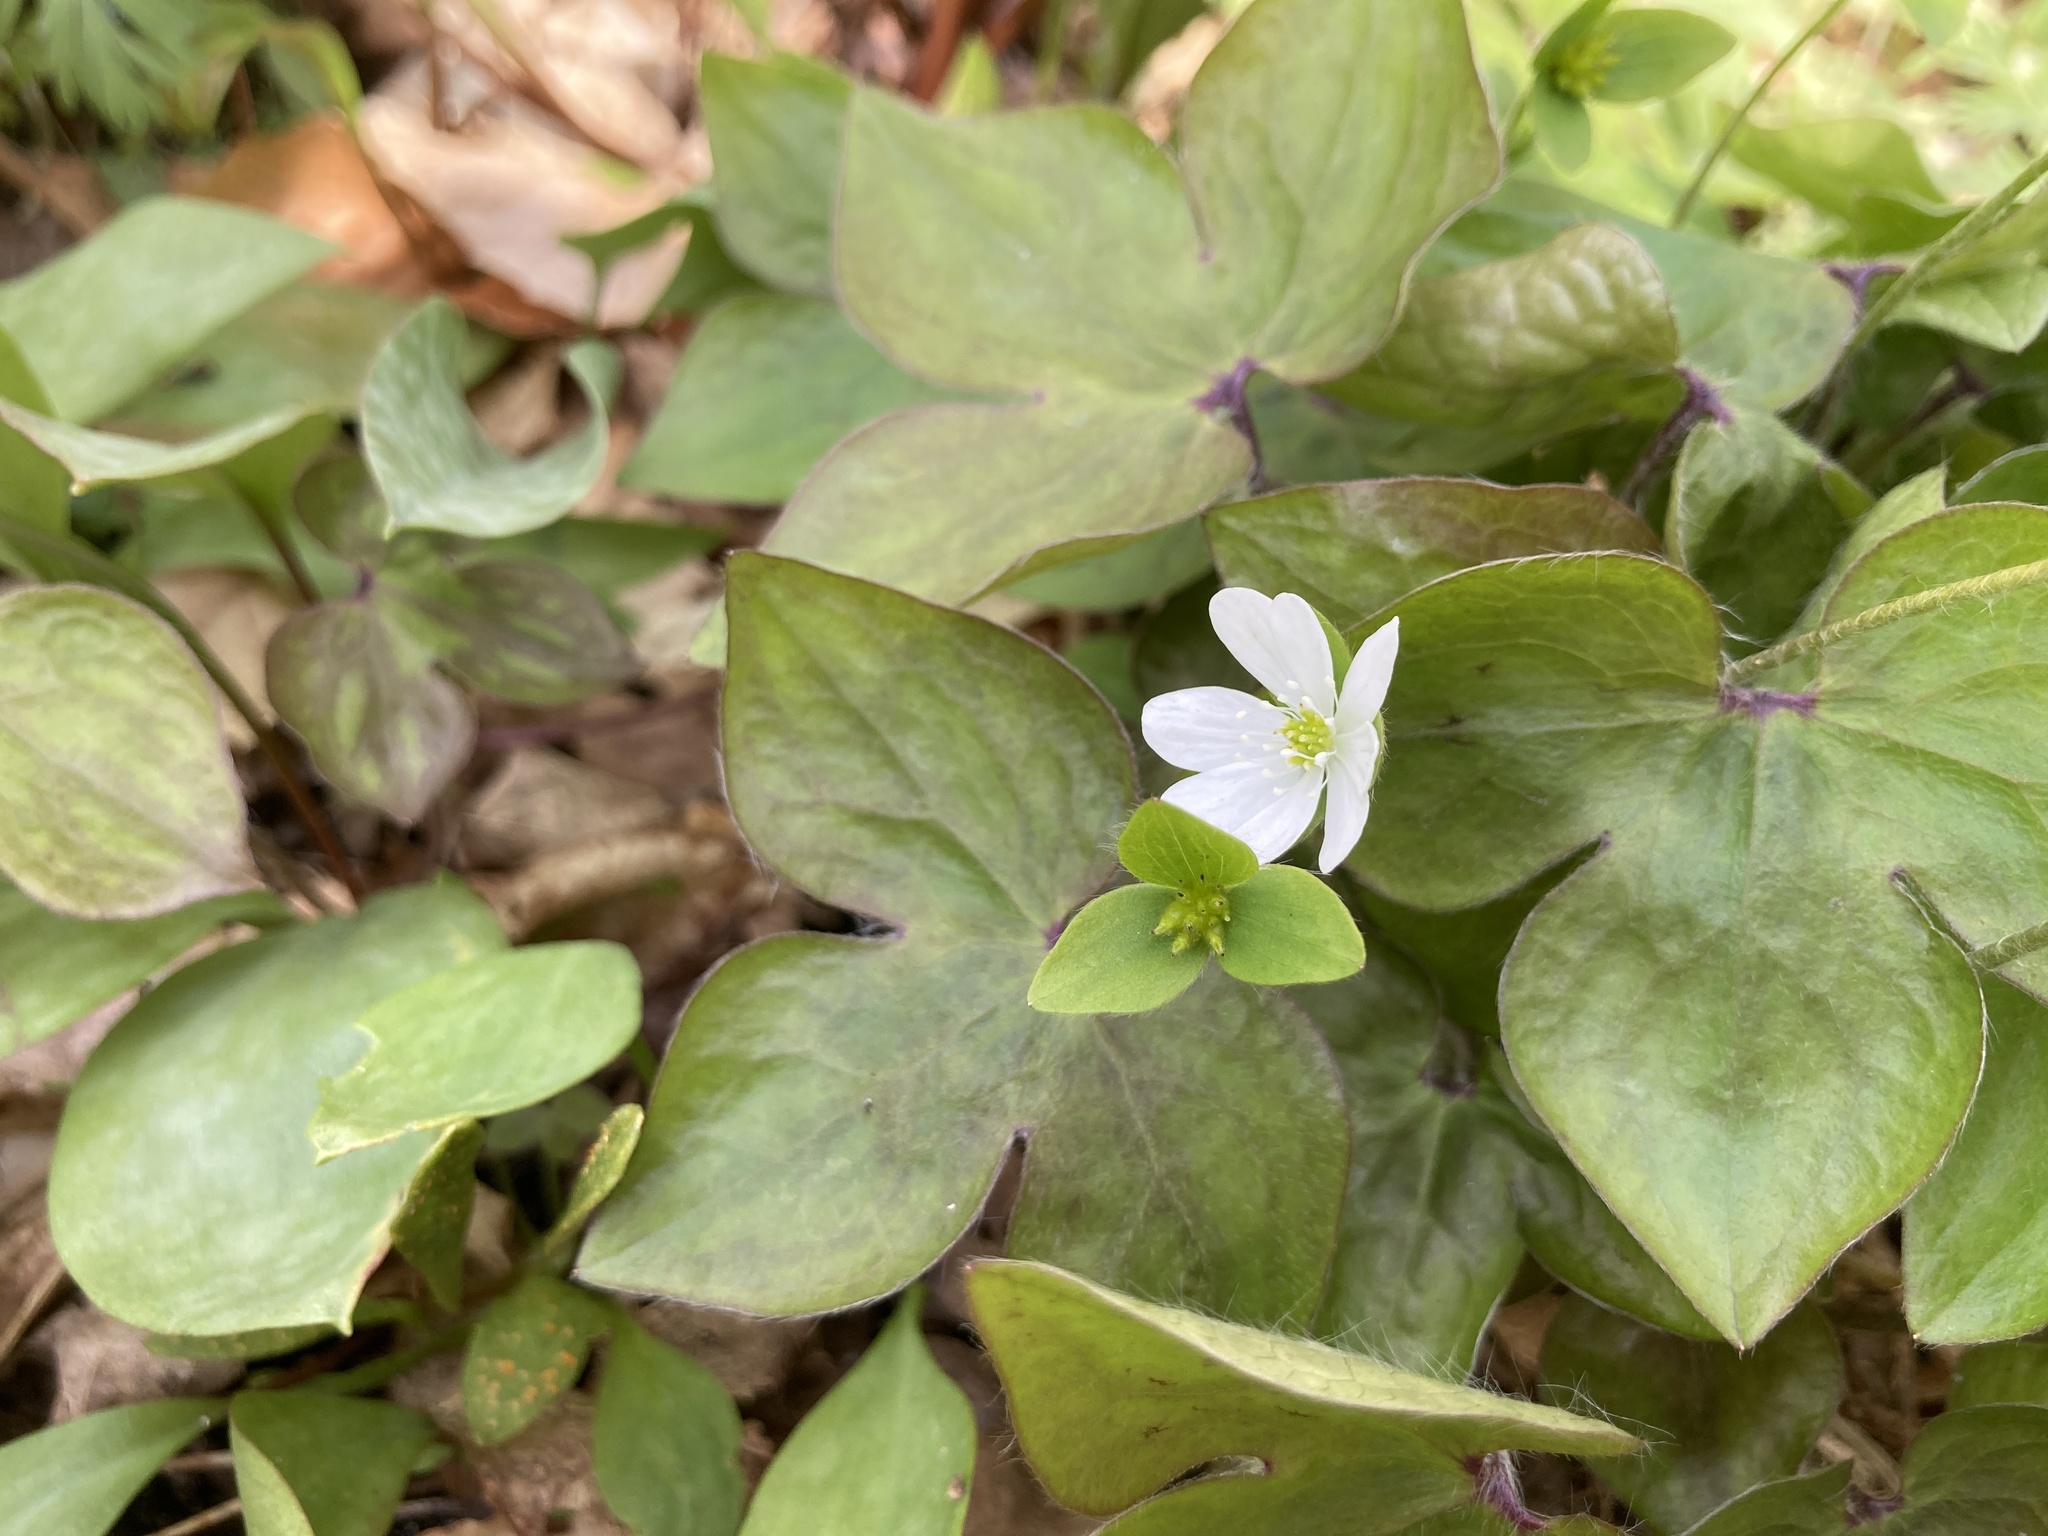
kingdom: Plantae
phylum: Tracheophyta
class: Magnoliopsida
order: Ranunculales
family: Ranunculaceae
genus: Hepatica
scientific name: Hepatica acutiloba
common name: Sharp-lobed hepatica
